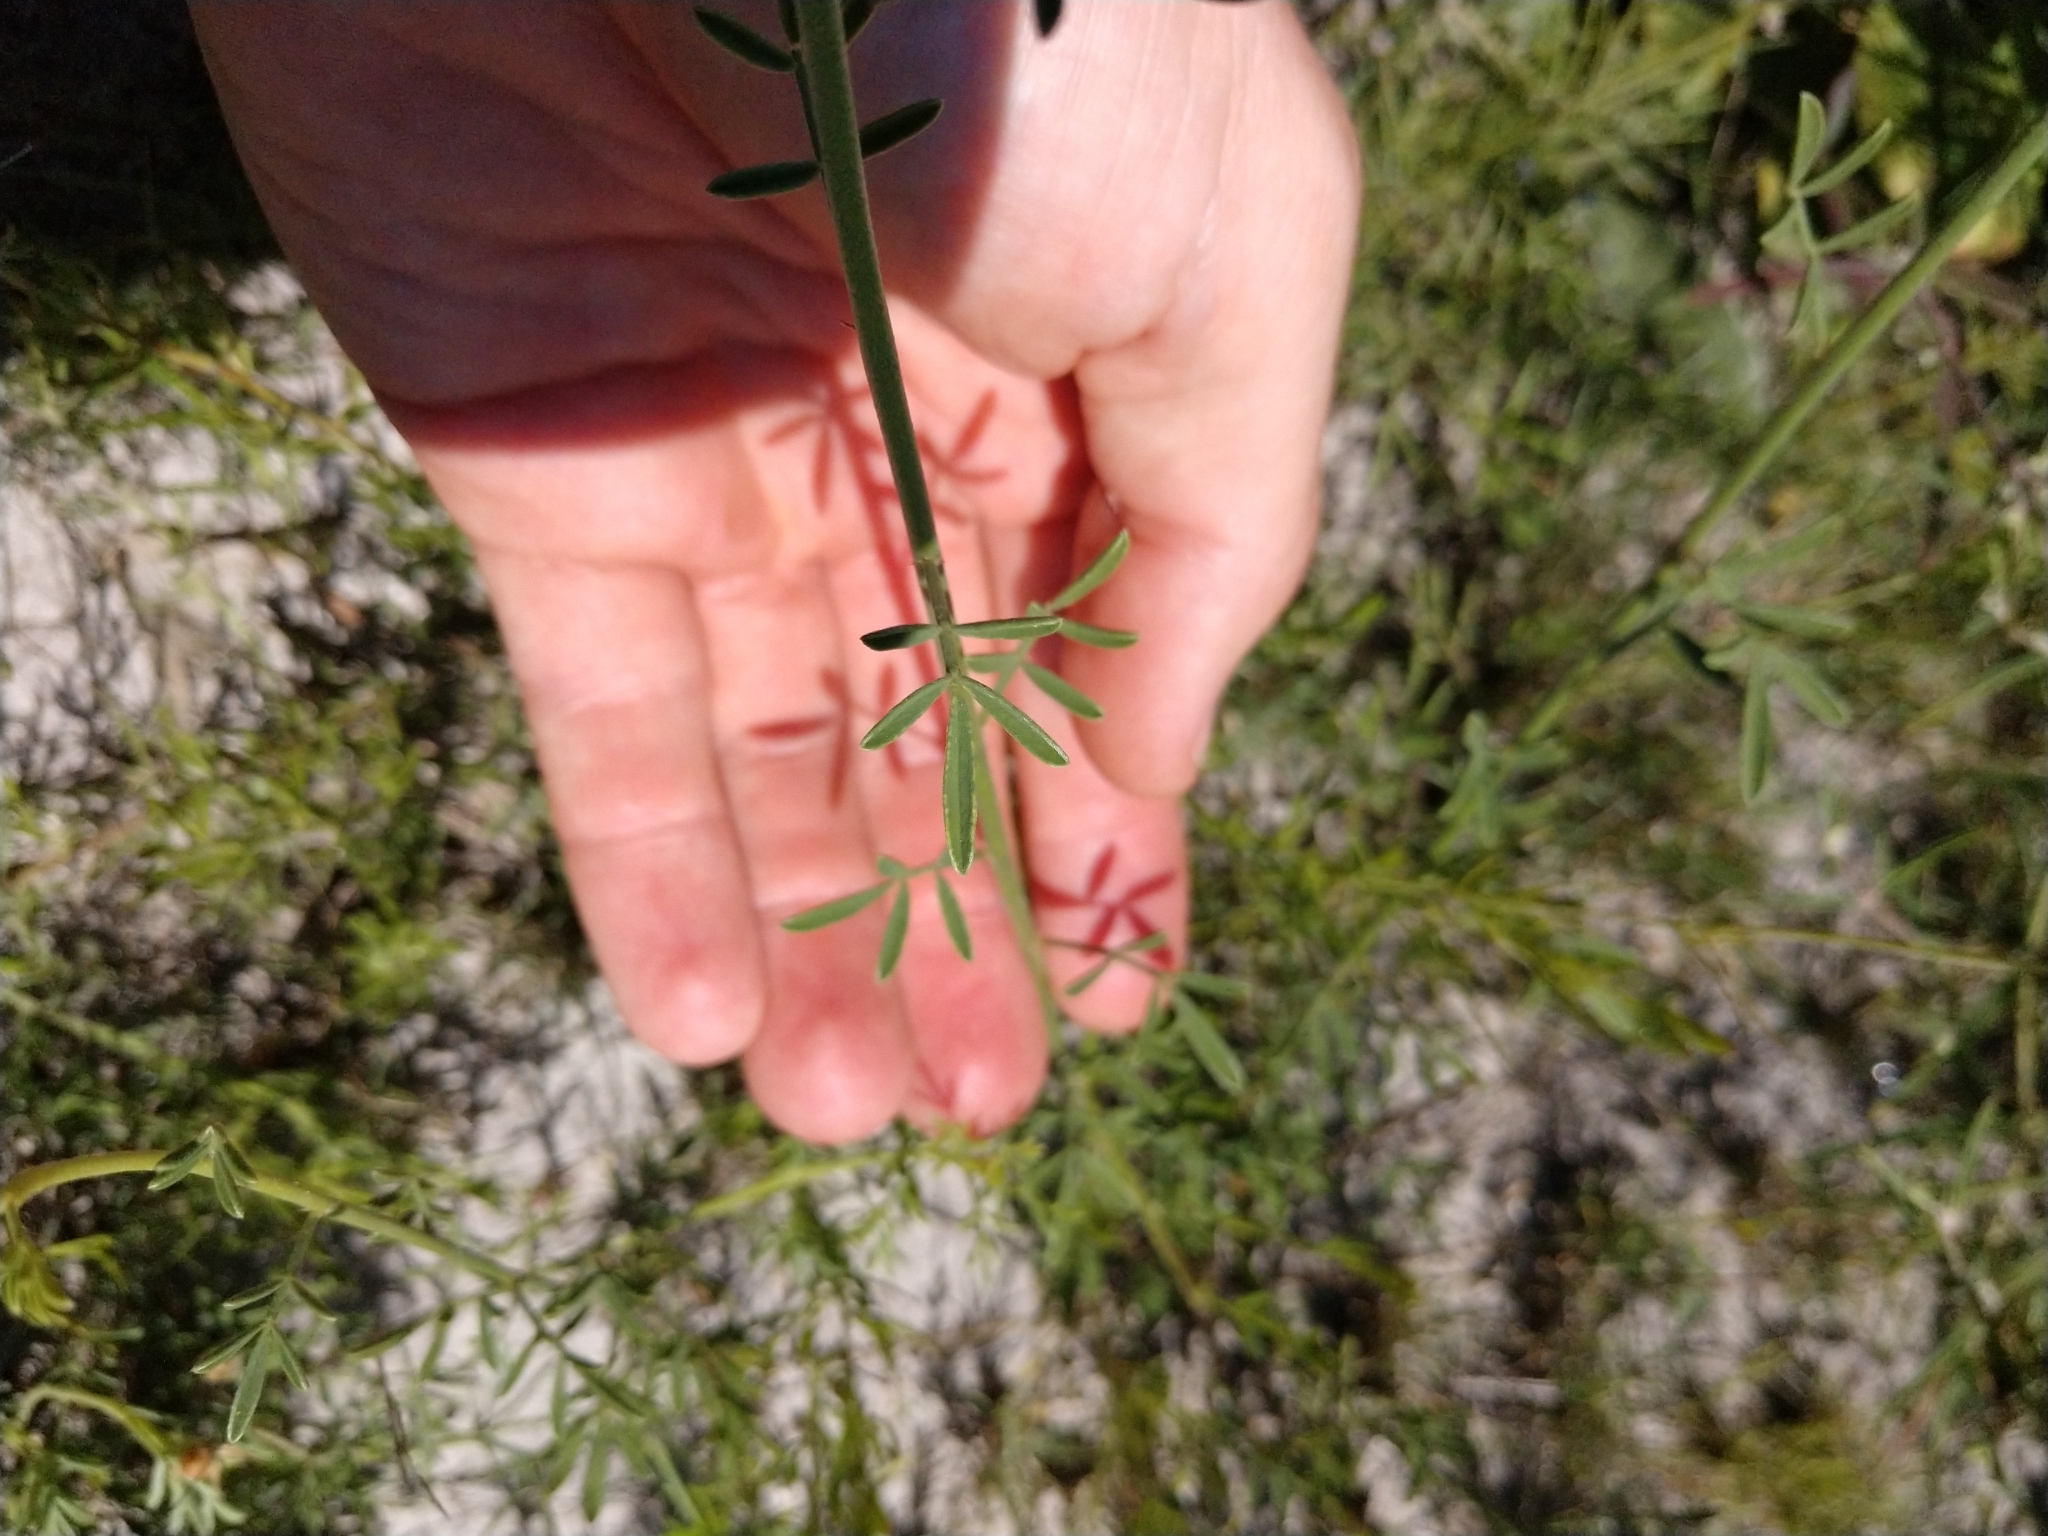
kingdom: Plantae
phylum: Tracheophyta
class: Magnoliopsida
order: Fabales
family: Fabaceae
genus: Dalea
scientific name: Dalea aurea
